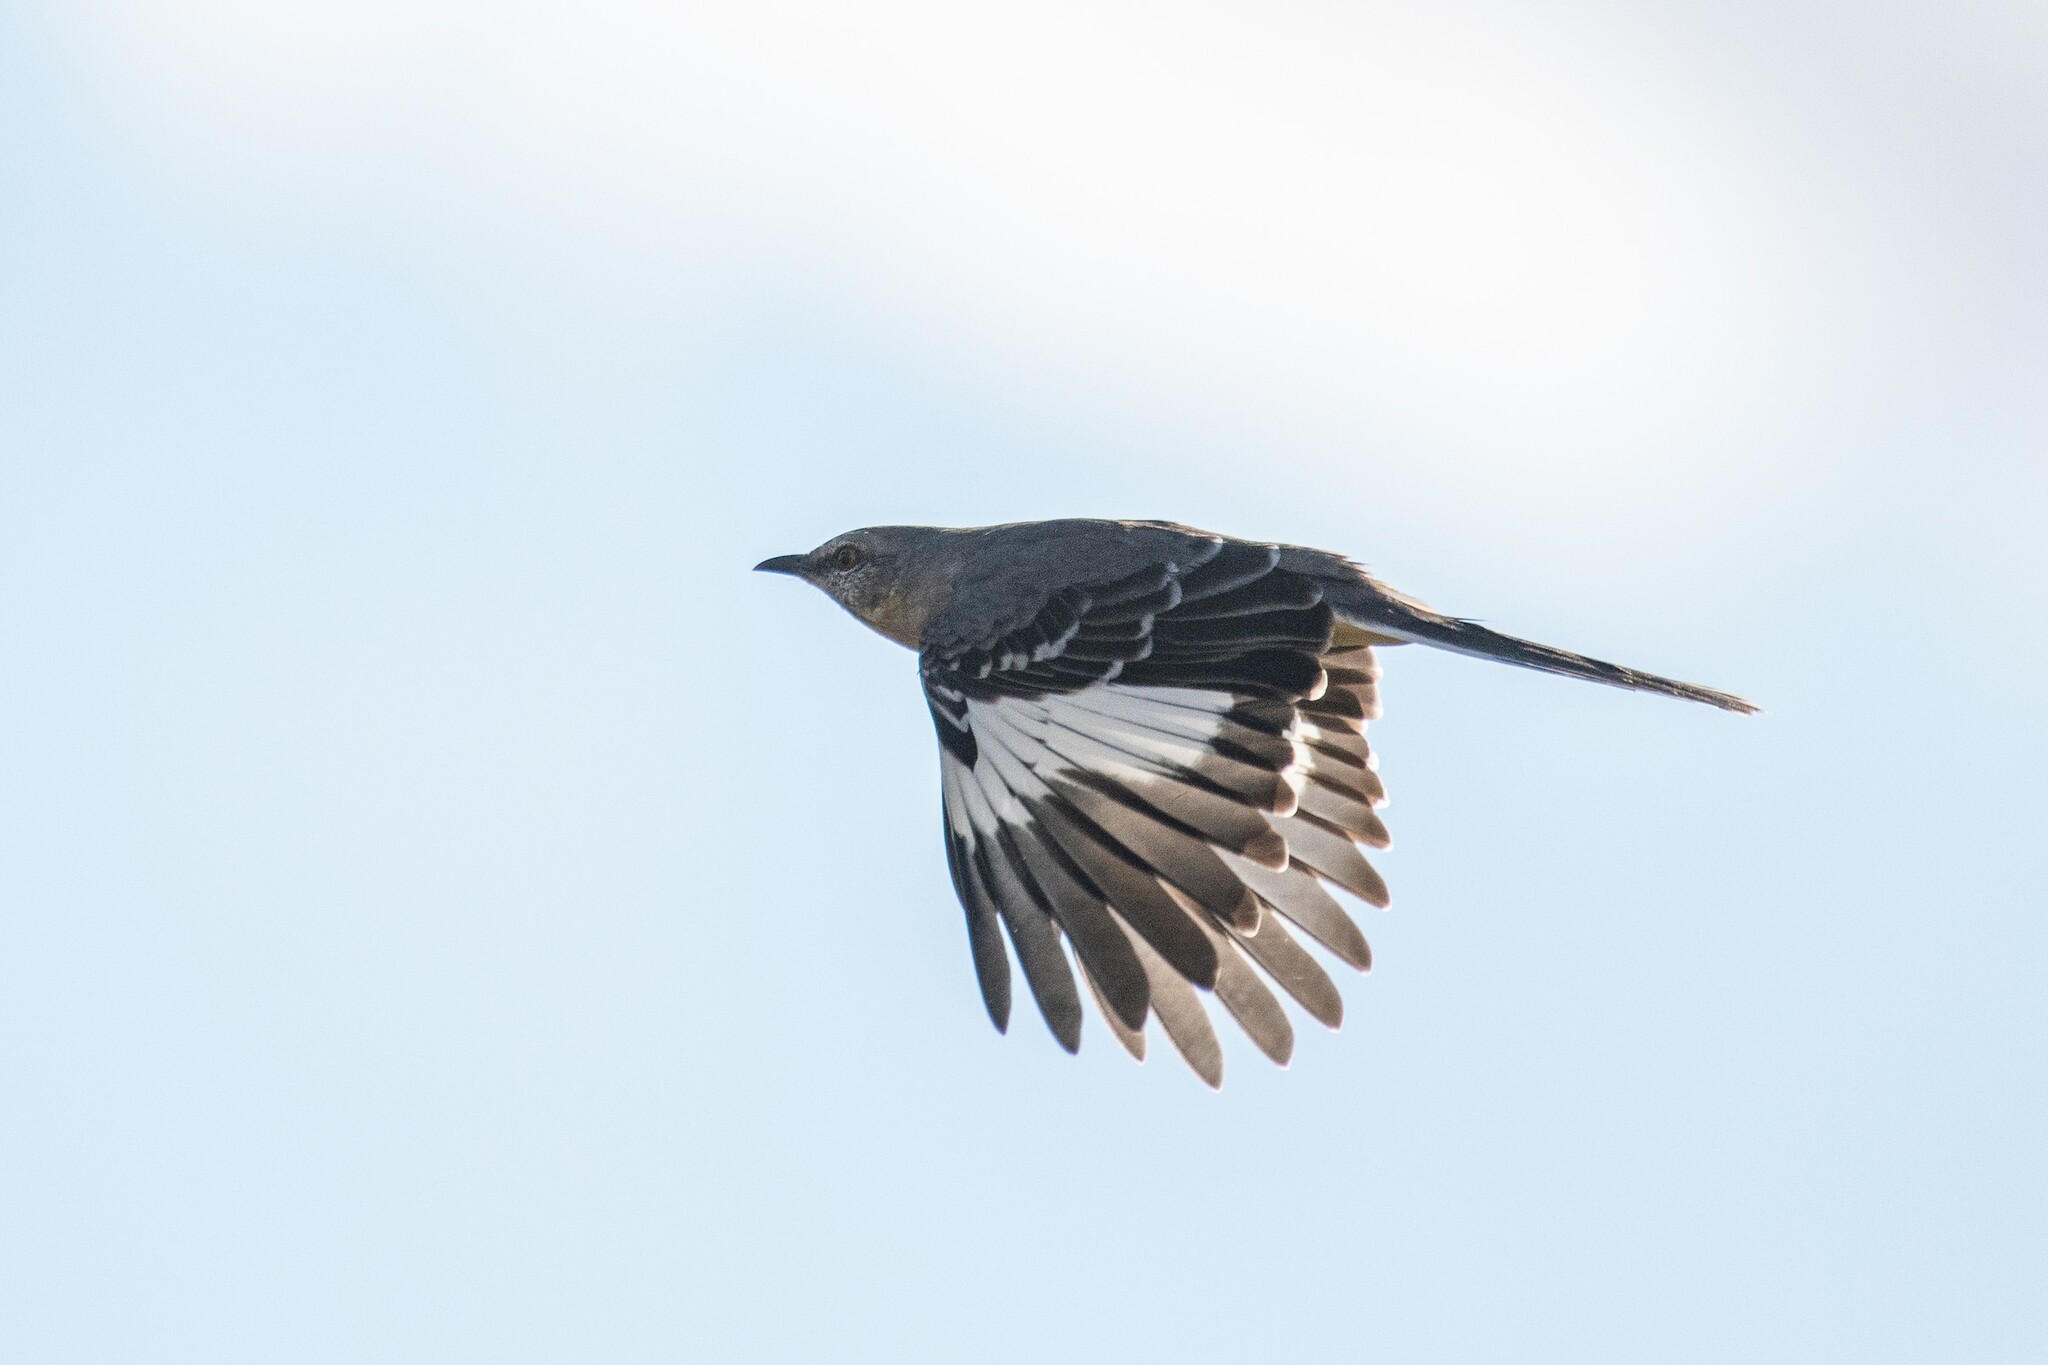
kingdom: Animalia
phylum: Chordata
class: Aves
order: Passeriformes
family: Mimidae
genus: Mimus
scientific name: Mimus polyglottos
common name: Northern mockingbird
